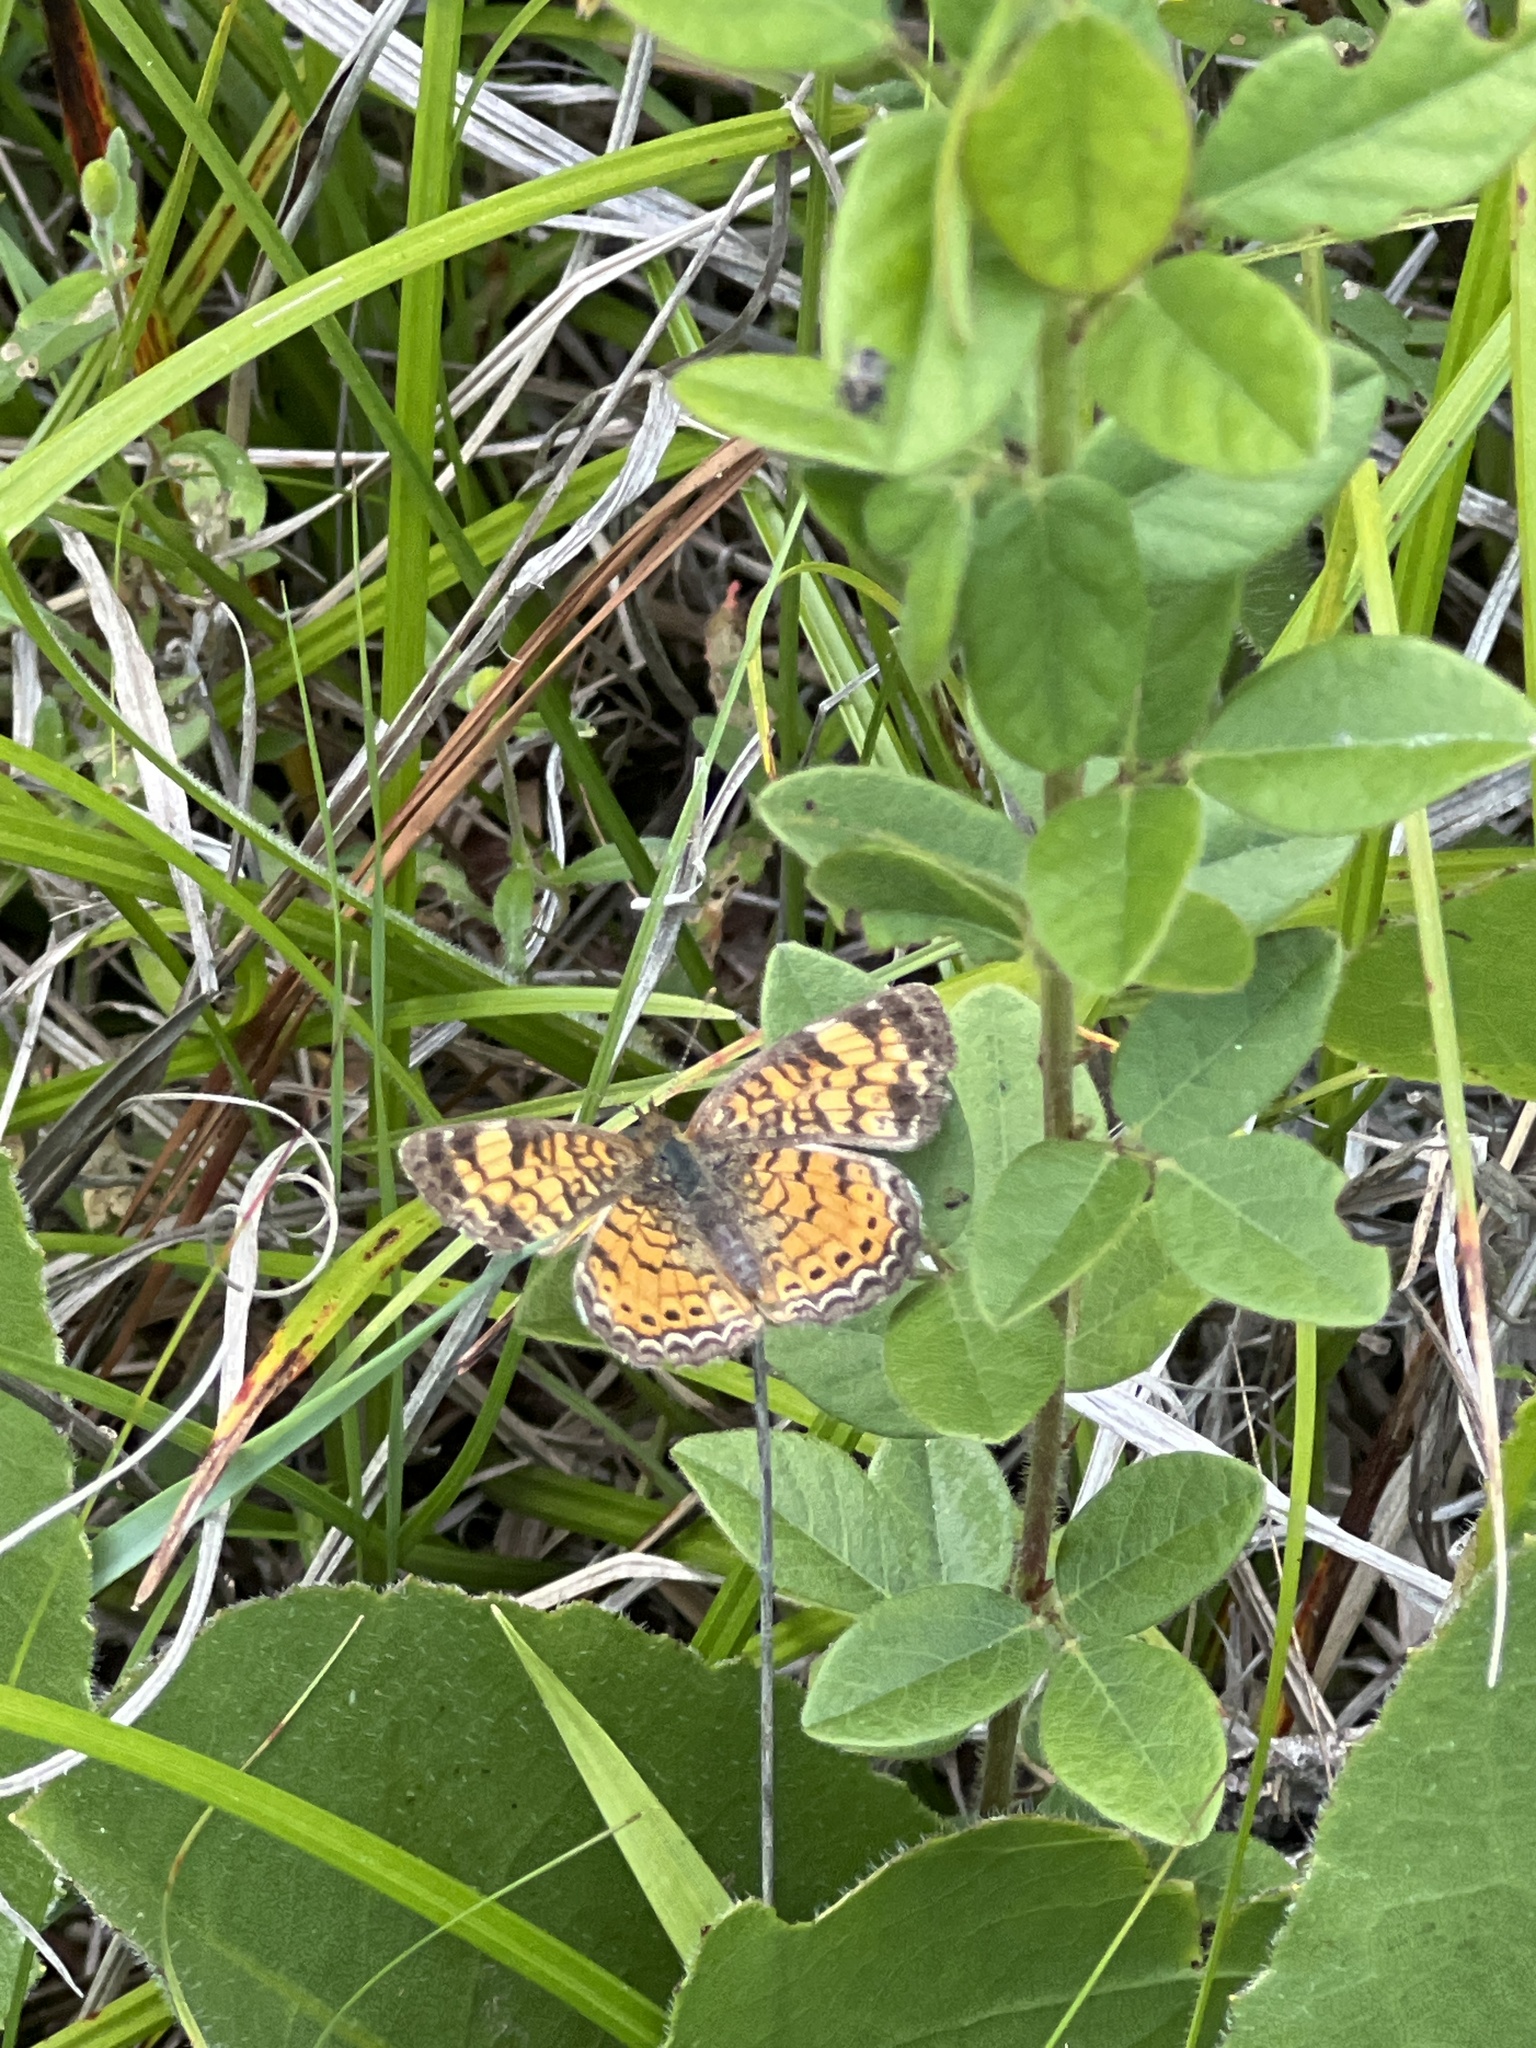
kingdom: Animalia
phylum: Arthropoda
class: Insecta
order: Lepidoptera
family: Nymphalidae
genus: Phyciodes
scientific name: Phyciodes tharos
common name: Pearl crescent
